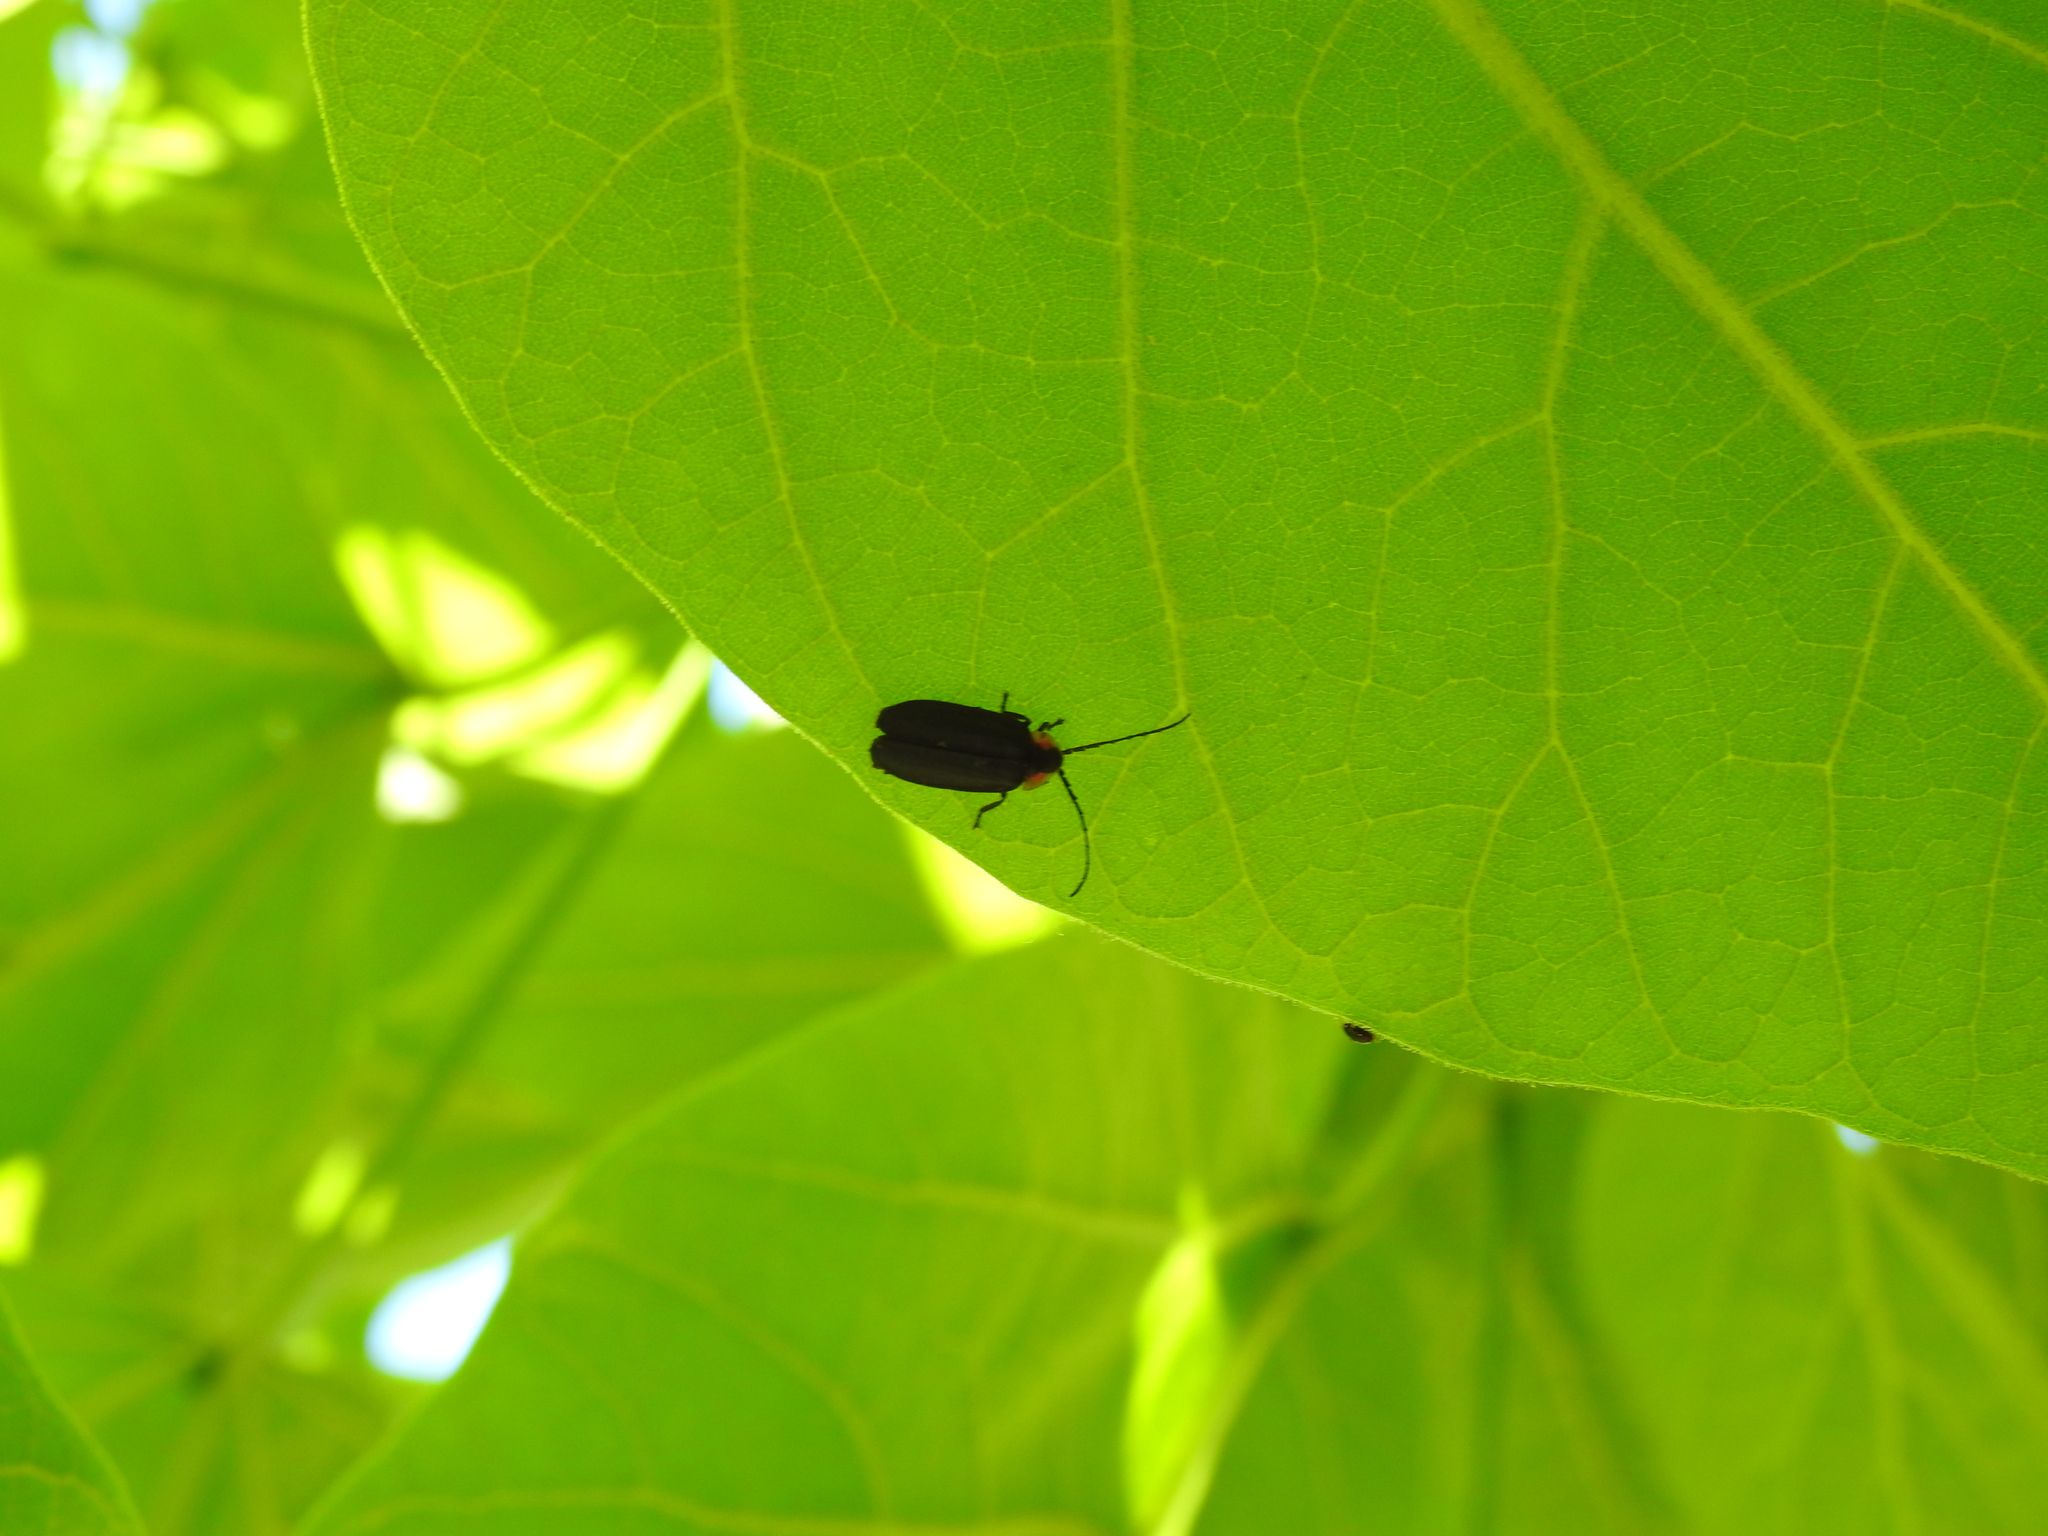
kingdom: Animalia
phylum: Arthropoda
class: Insecta
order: Coleoptera
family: Lampyridae
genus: Lucidota
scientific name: Lucidota atra
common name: Black firefly
